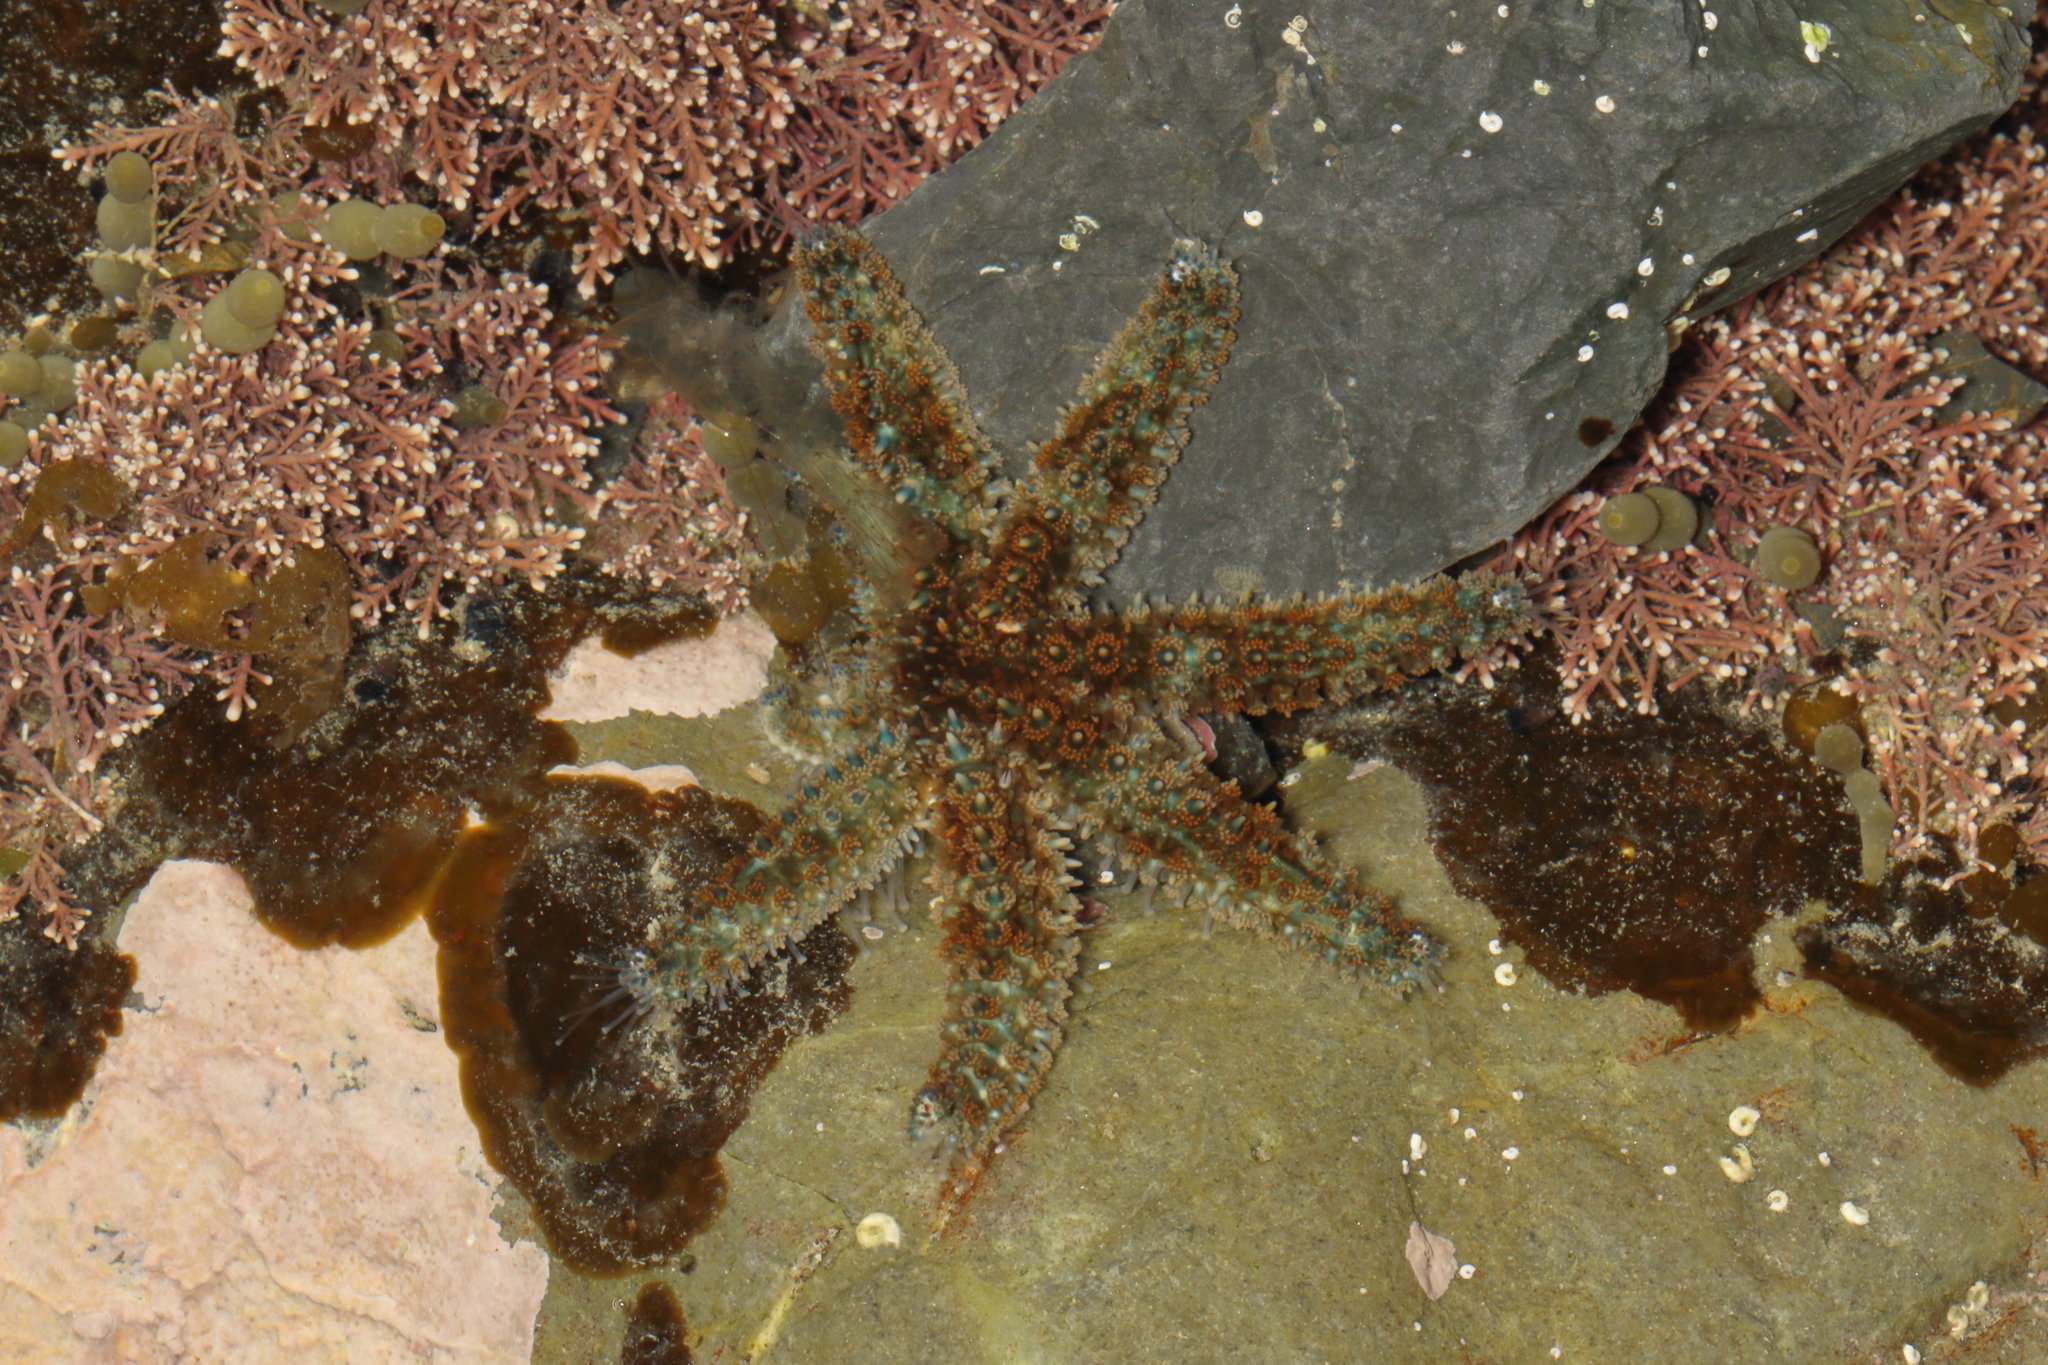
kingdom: Animalia
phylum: Echinodermata
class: Asteroidea
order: Forcipulatida
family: Asteriidae
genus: Coscinasterias
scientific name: Coscinasterias muricata
